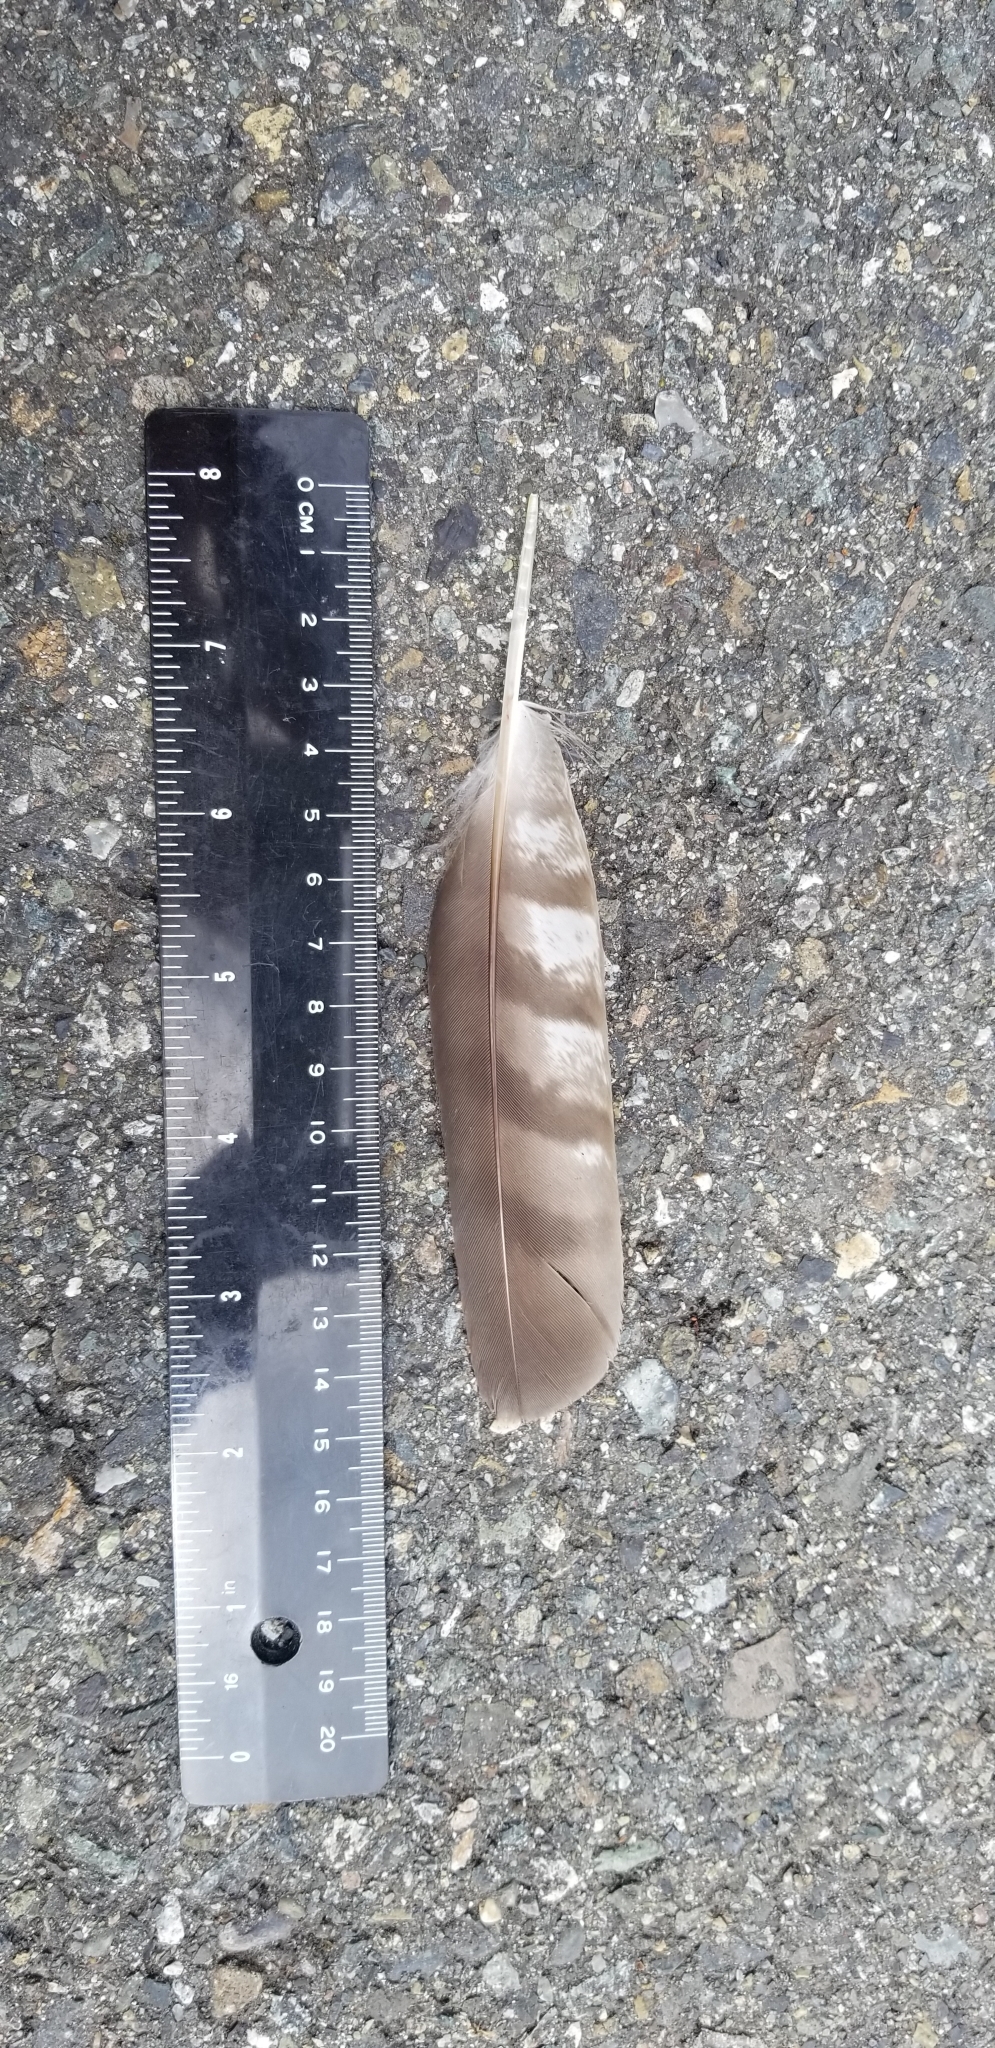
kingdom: Animalia
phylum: Chordata
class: Aves
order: Accipitriformes
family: Accipitridae
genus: Accipiter
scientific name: Accipiter cooperii
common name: Cooper's hawk
